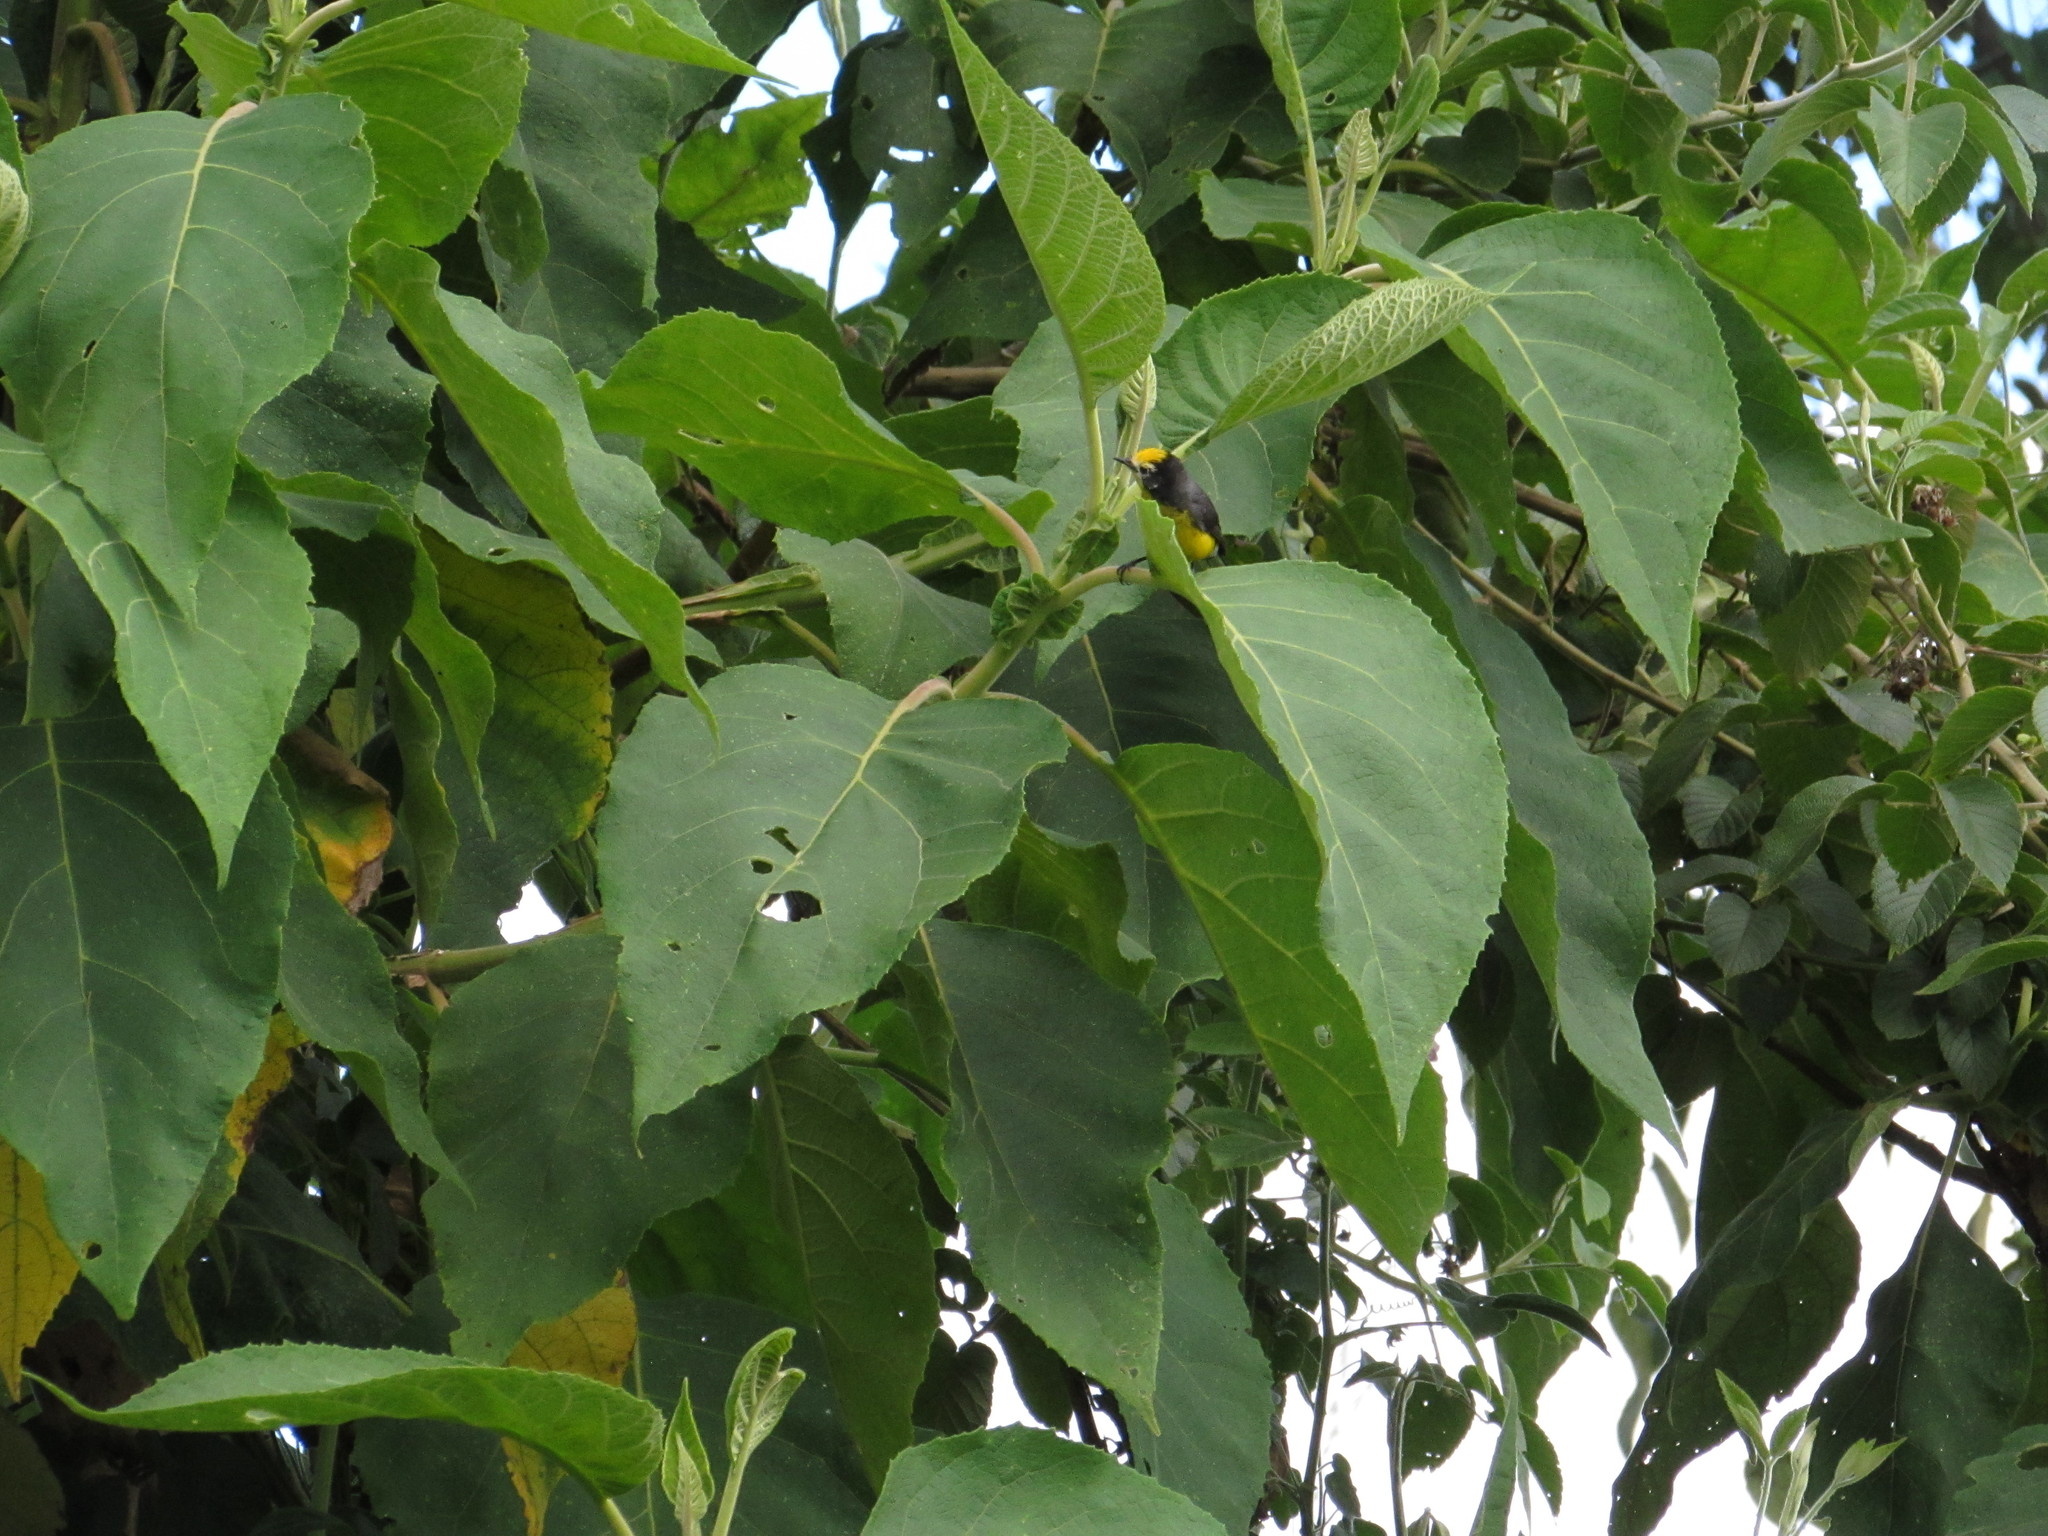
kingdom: Animalia
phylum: Chordata
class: Aves
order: Passeriformes
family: Parulidae
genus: Myioborus
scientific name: Myioborus ornatus
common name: Golden-fronted whitestart
